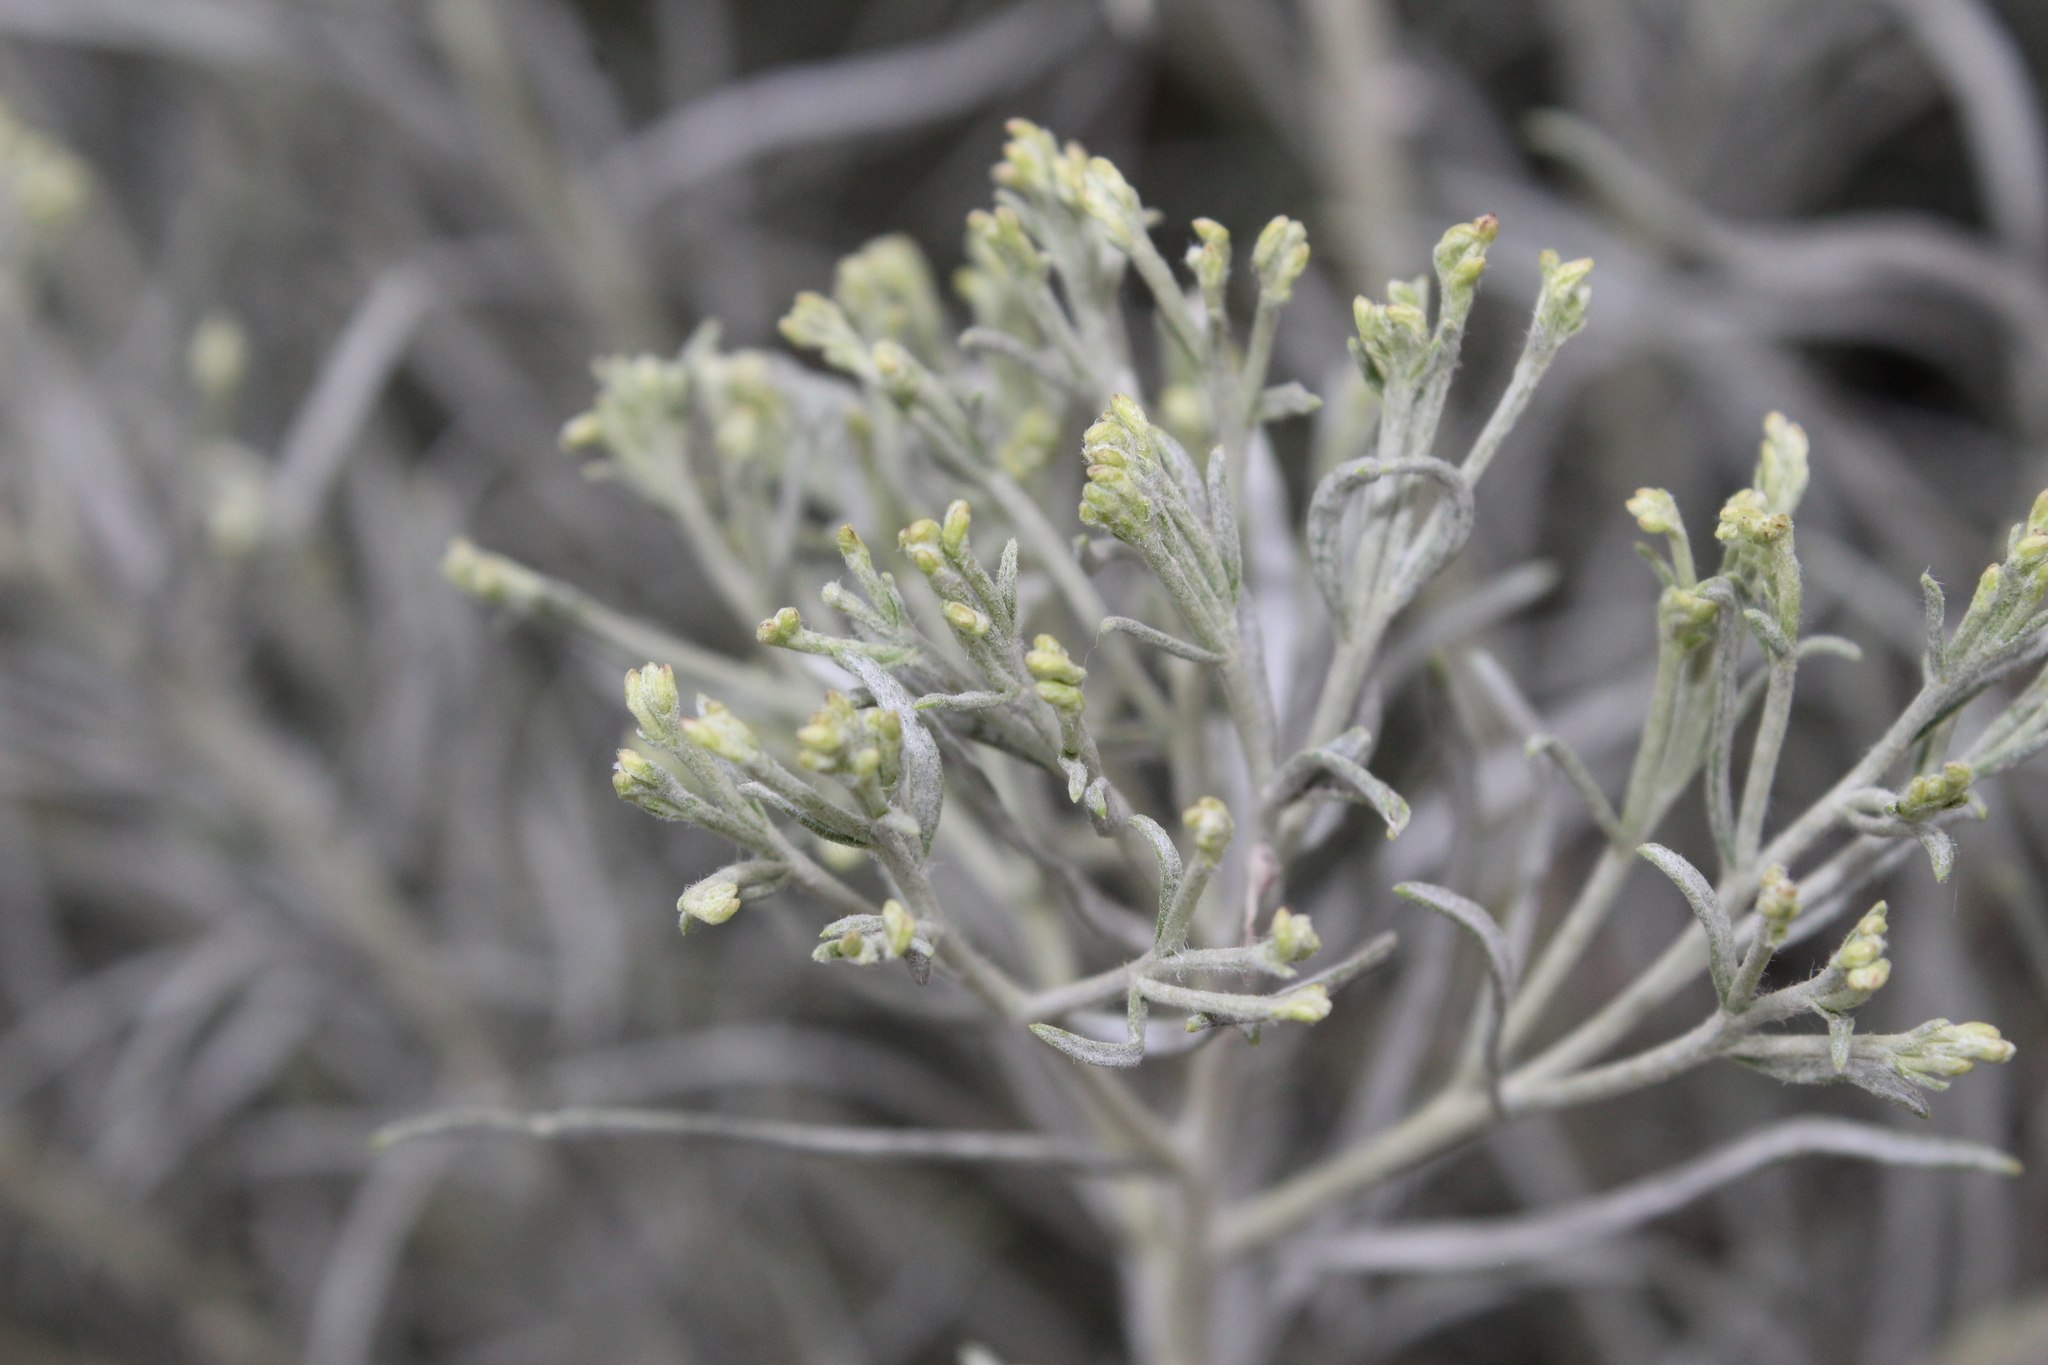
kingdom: Plantae
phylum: Tracheophyta
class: Magnoliopsida
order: Asterales
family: Asteraceae
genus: Ericameria
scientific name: Ericameria nauseosa
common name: Rubber rabbitbrush
